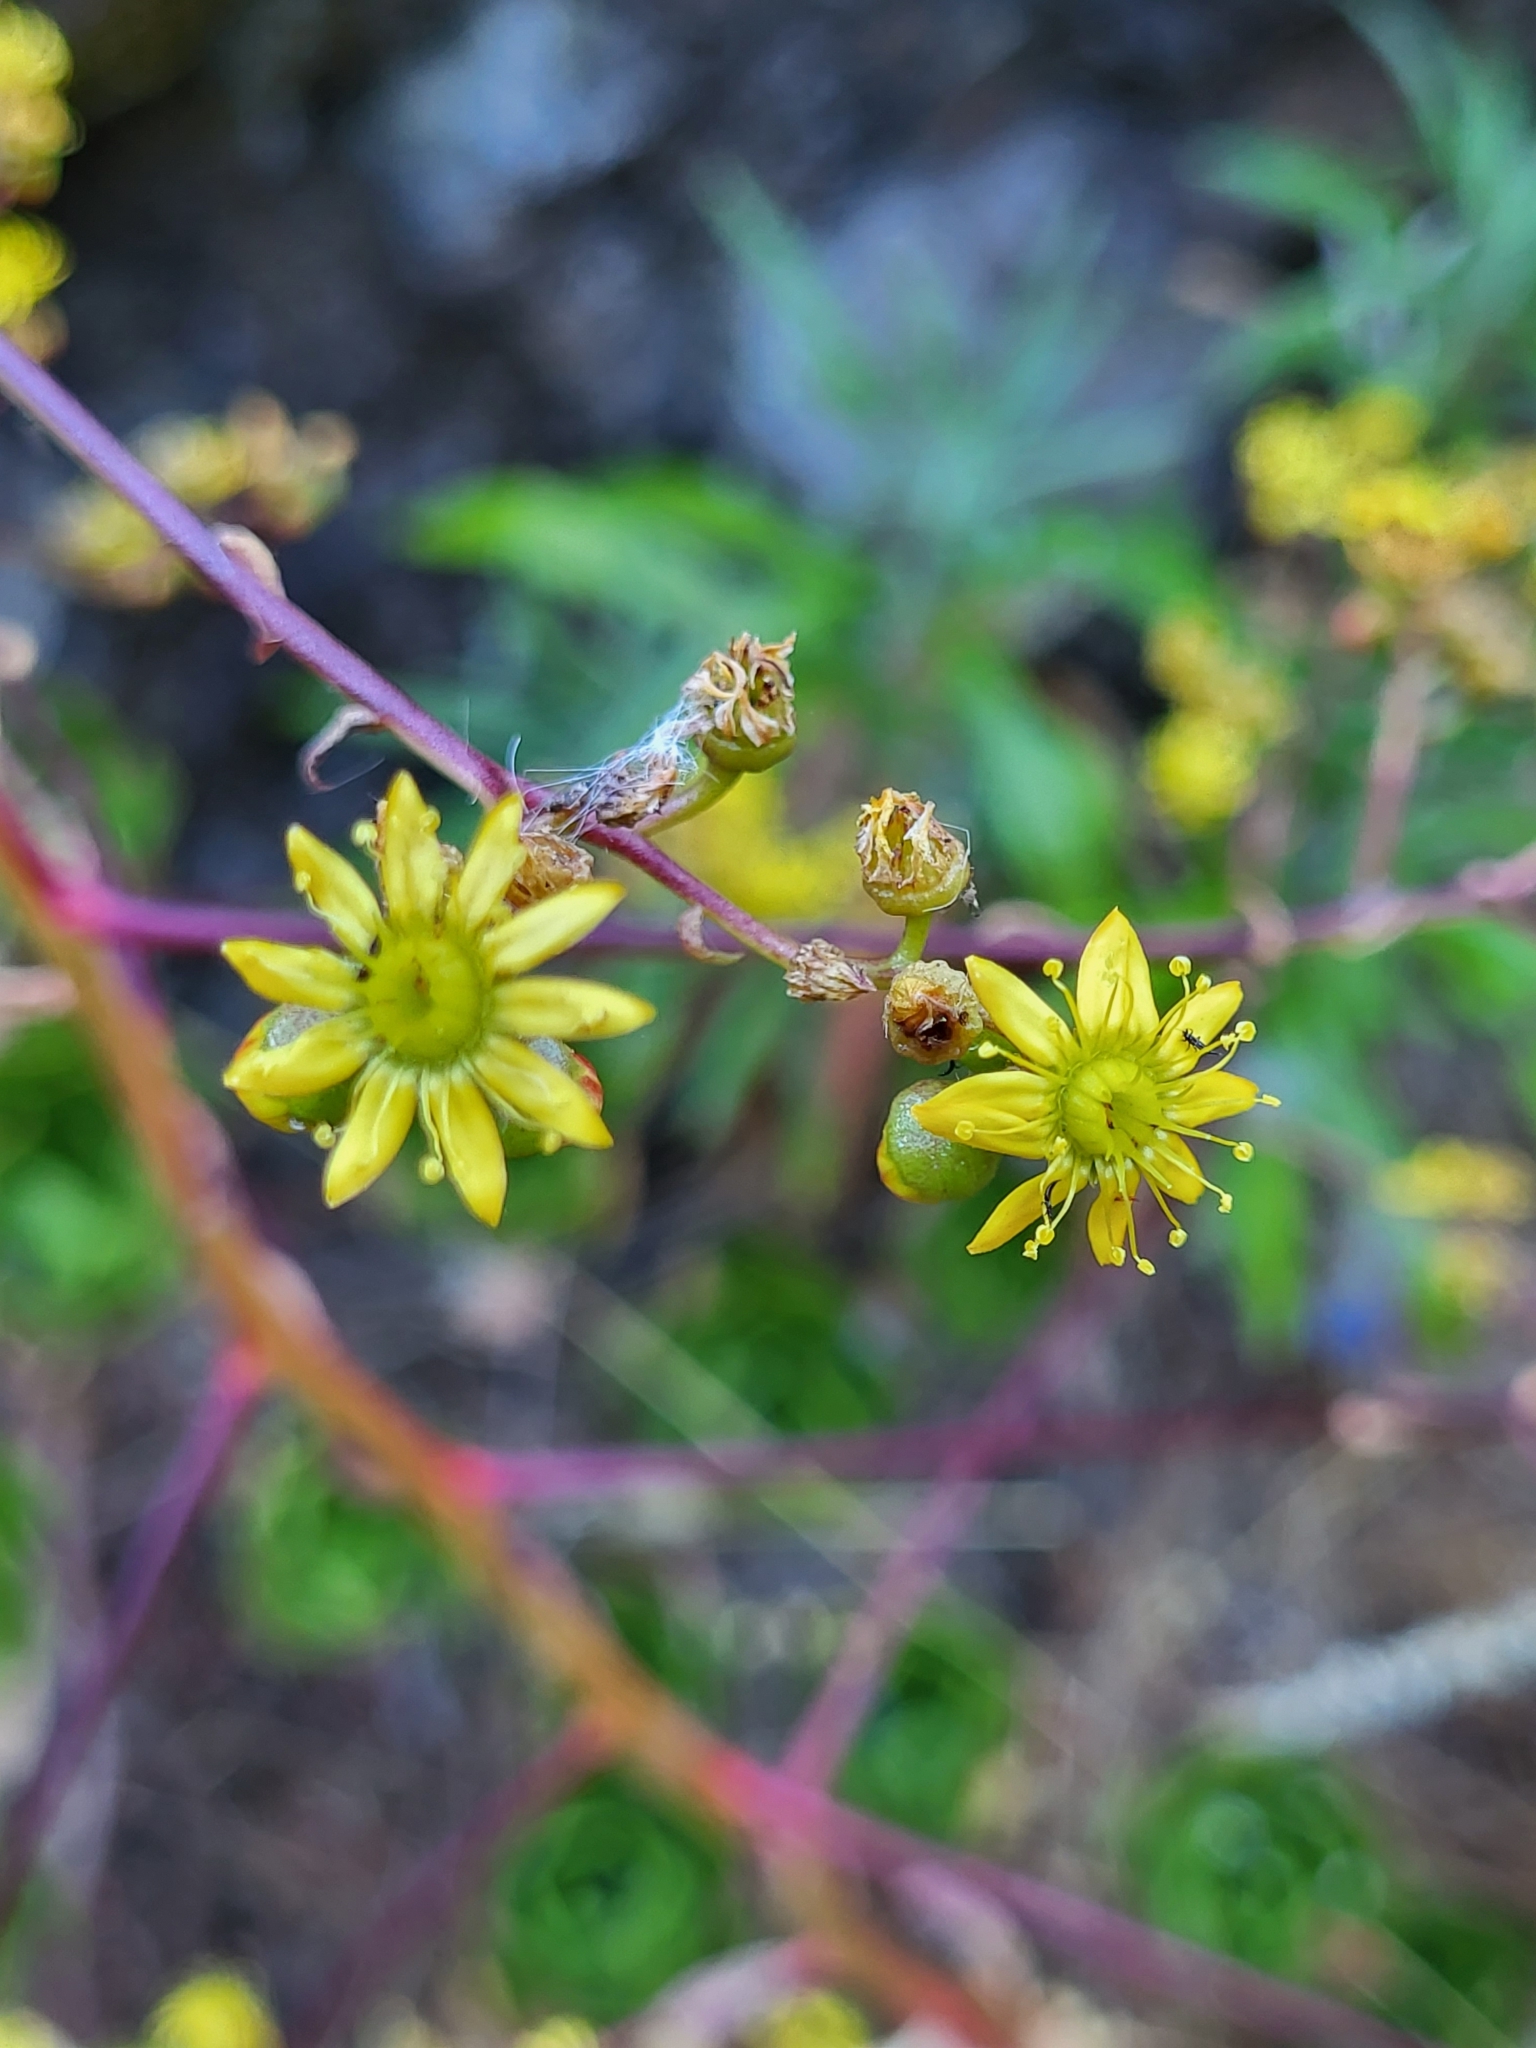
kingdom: Plantae
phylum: Tracheophyta
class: Magnoliopsida
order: Saxifragales
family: Crassulaceae
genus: Aeonium
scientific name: Aeonium glutinosum
